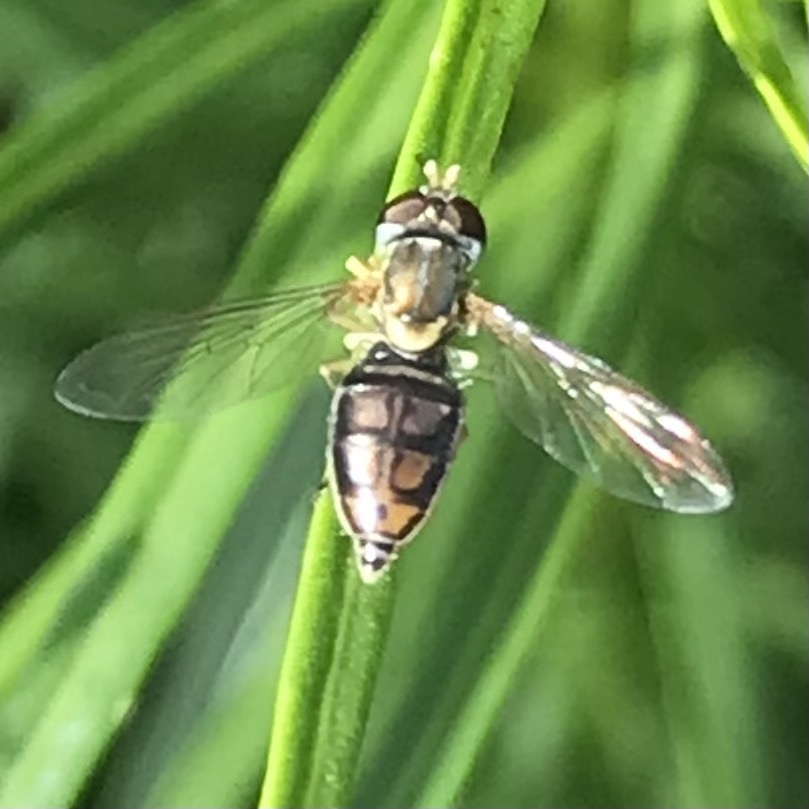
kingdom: Animalia
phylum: Arthropoda
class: Insecta
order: Diptera
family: Syrphidae
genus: Toxomerus
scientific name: Toxomerus marginatus
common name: Syrphid fly
